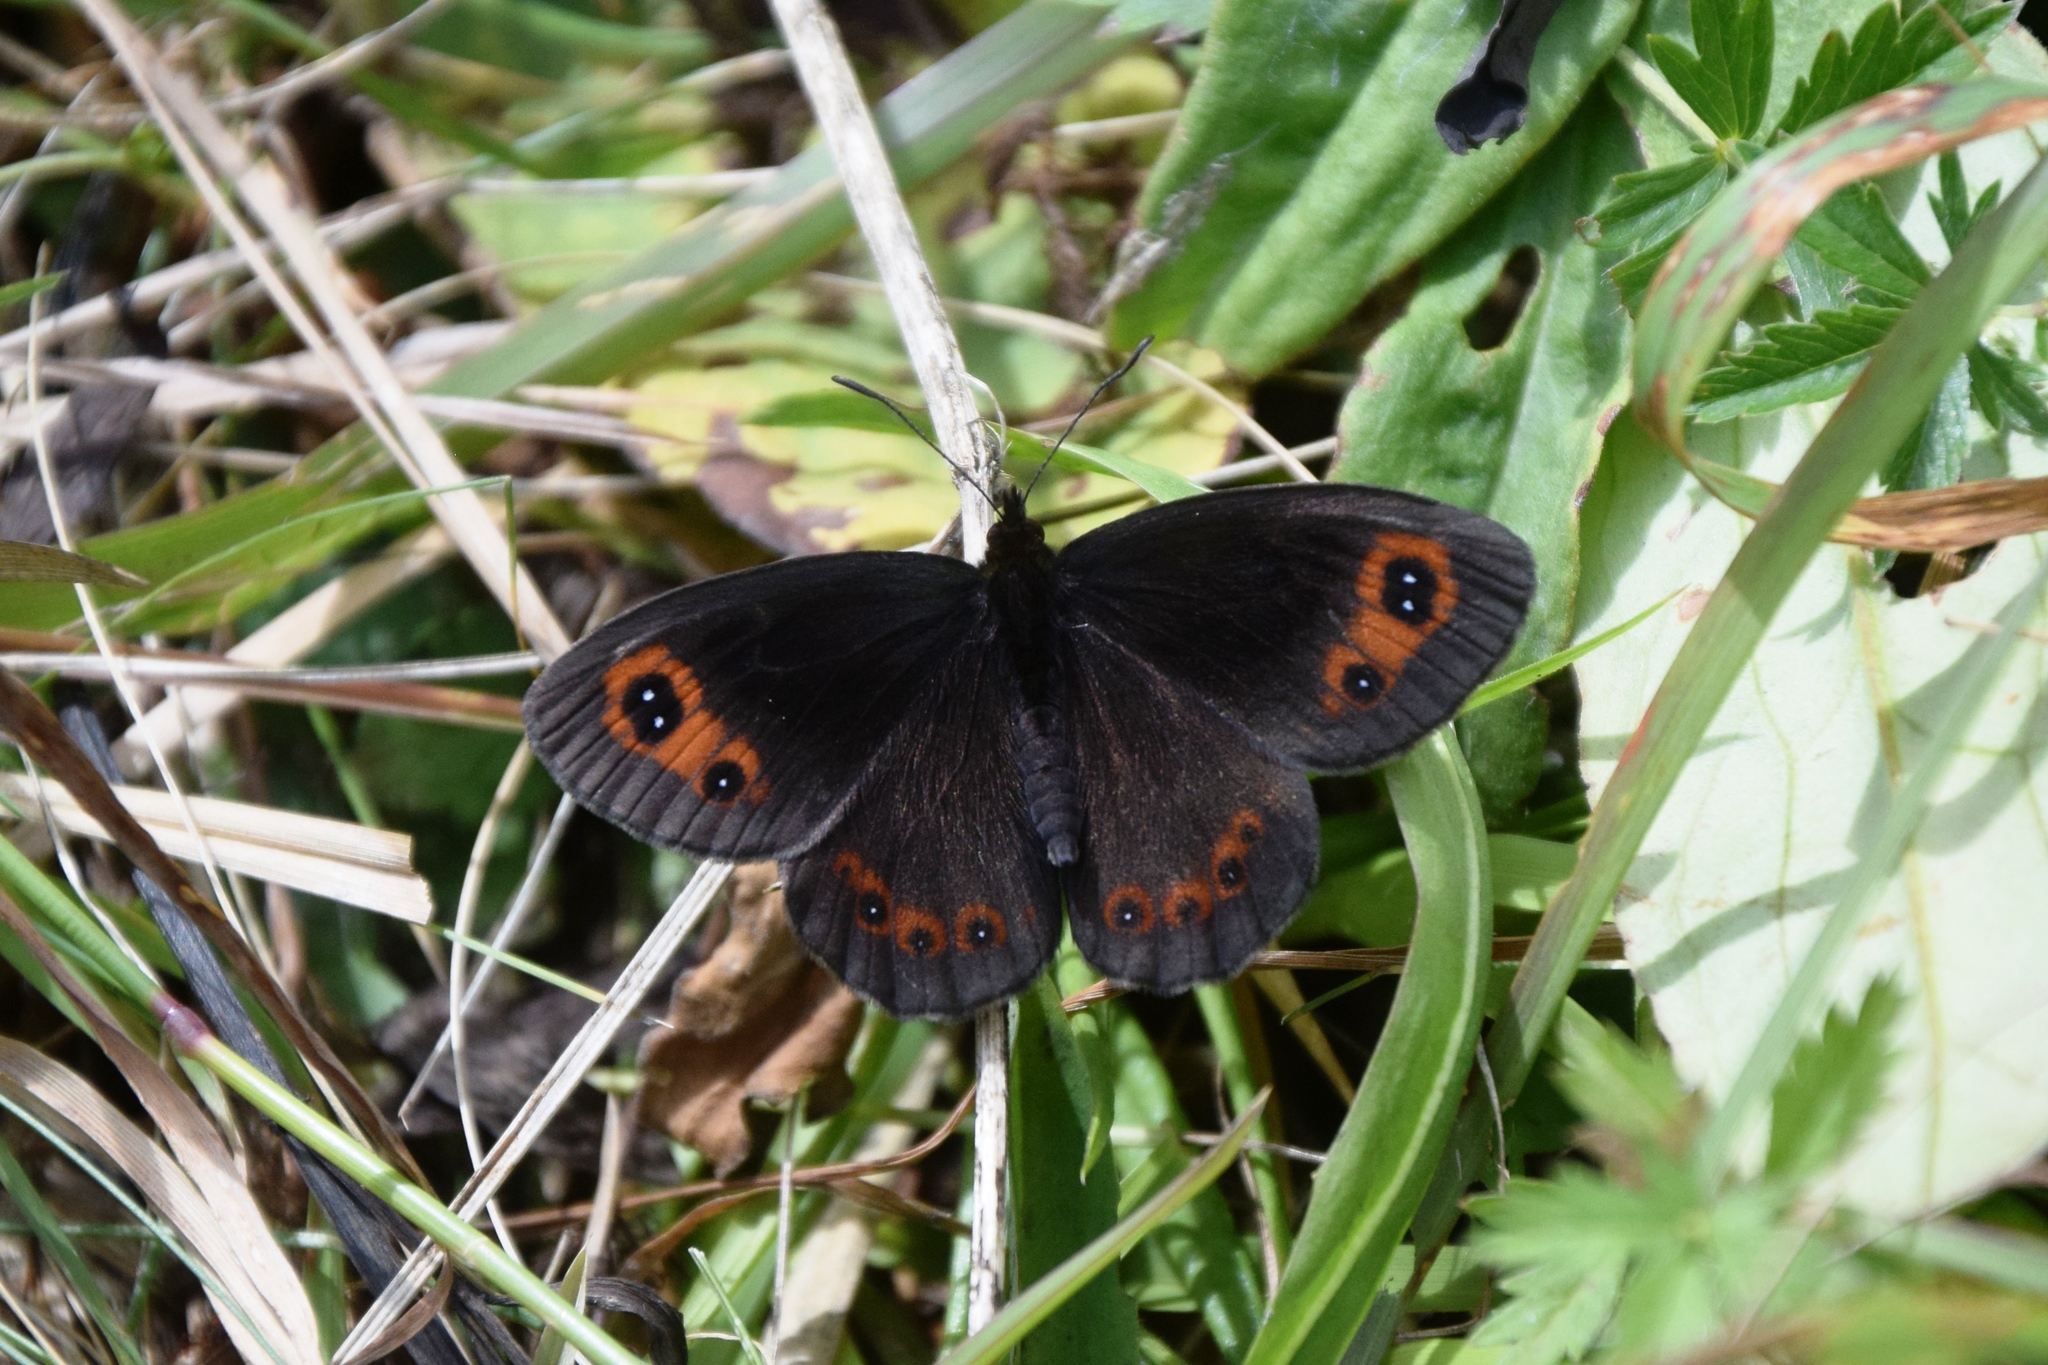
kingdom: Animalia
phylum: Arthropoda
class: Insecta
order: Lepidoptera
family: Nymphalidae
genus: Erebia
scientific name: Erebia aethiops
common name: Scotch argus
